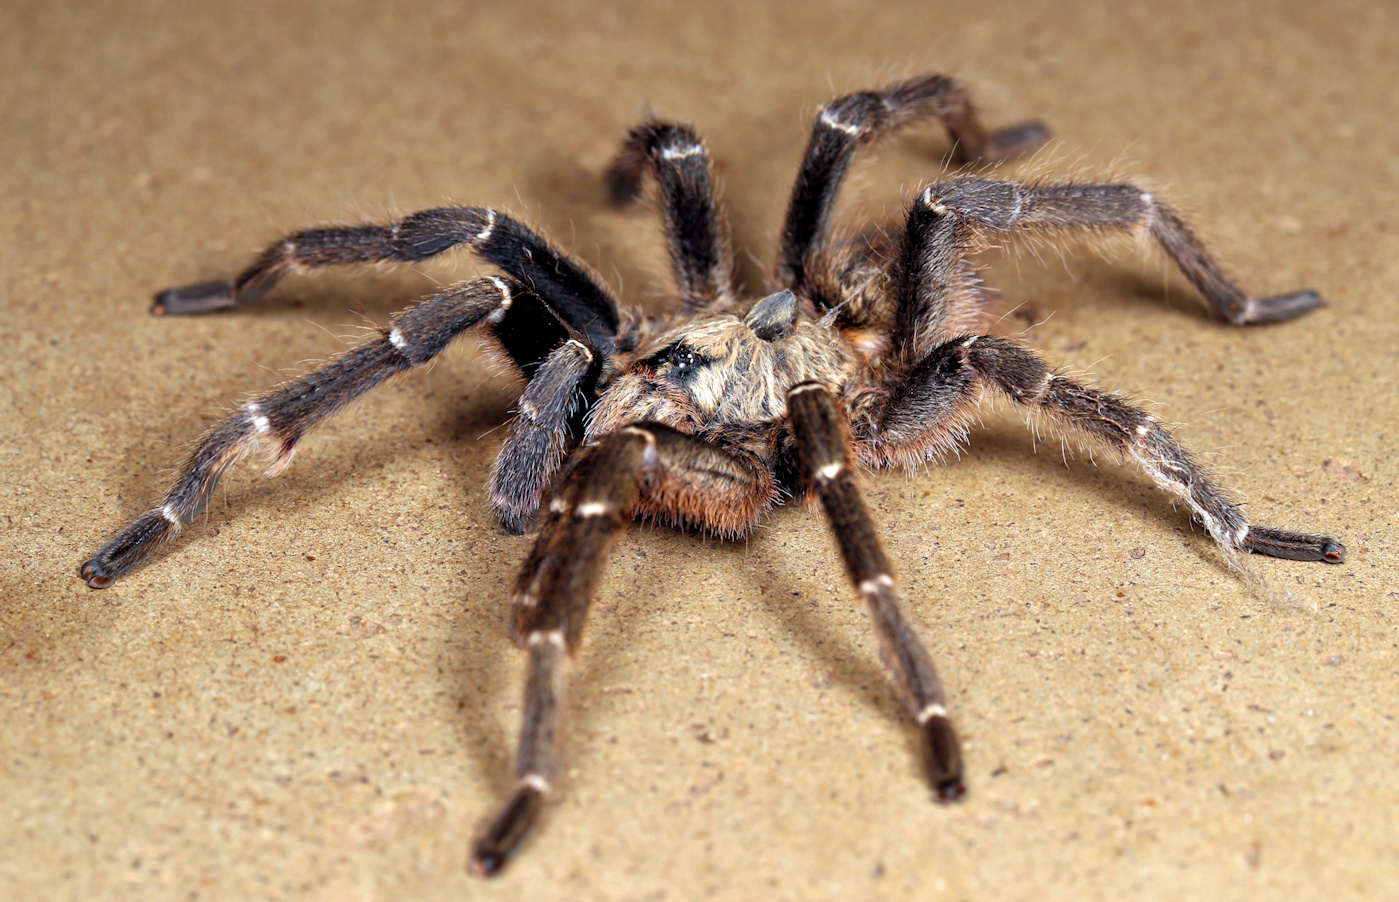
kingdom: Animalia
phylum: Arthropoda
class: Arachnida
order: Araneae
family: Theraphosidae
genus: Ceratogyrus
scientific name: Ceratogyrus darlingi
